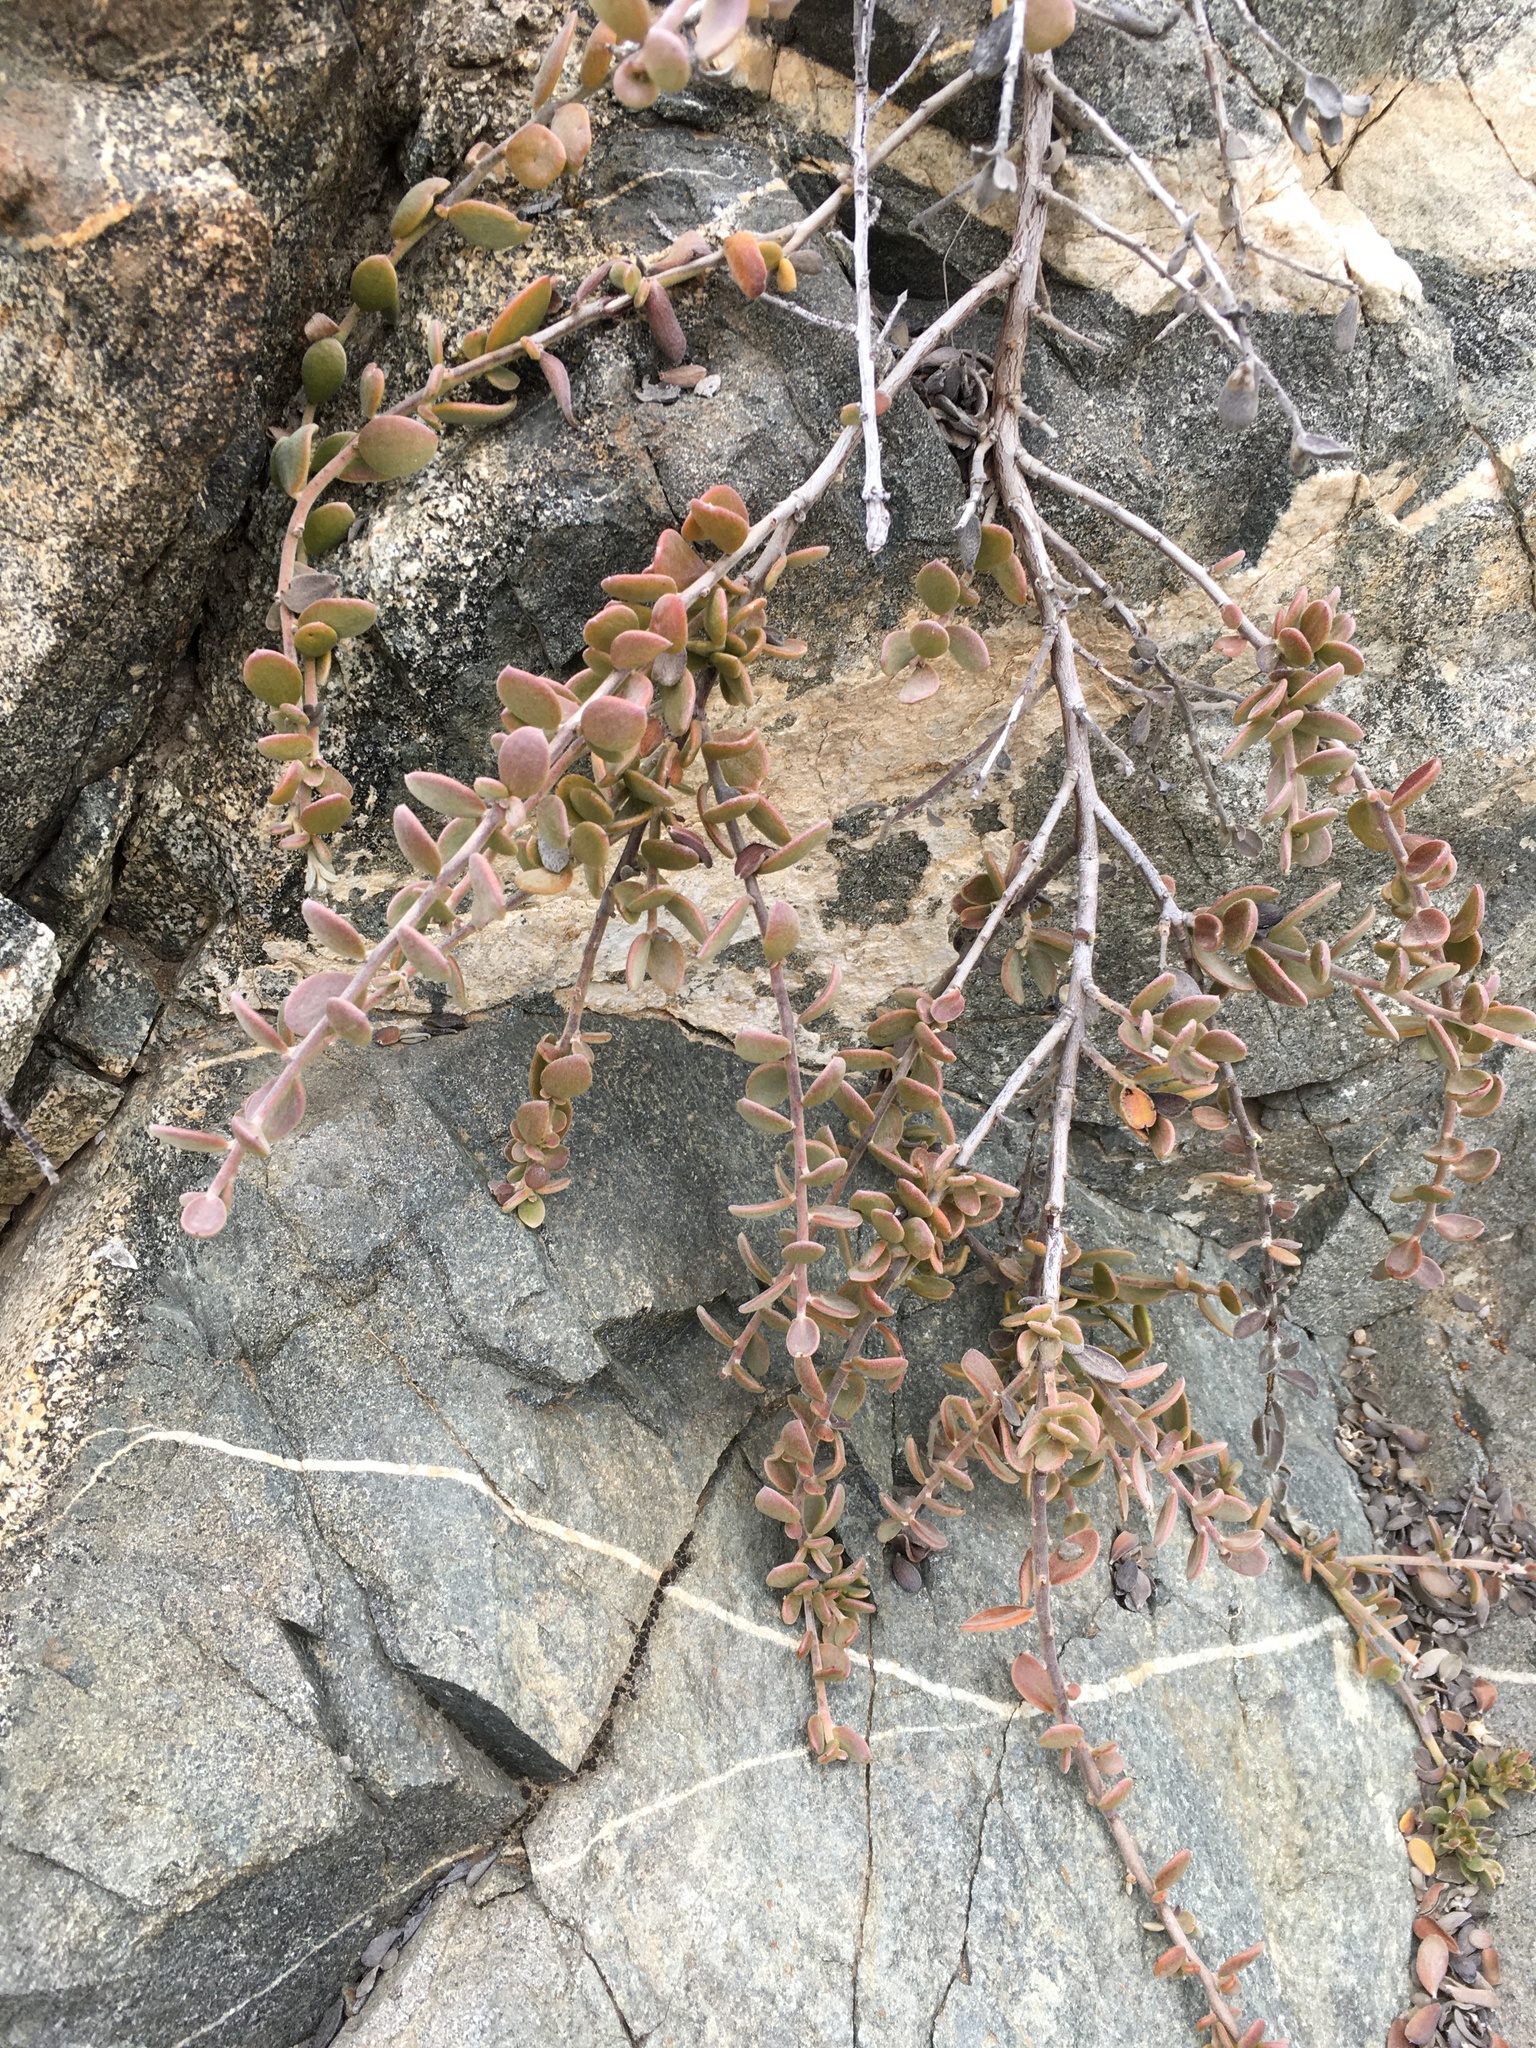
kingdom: Plantae
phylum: Tracheophyta
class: Magnoliopsida
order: Zygophyllales
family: Krameriaceae
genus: Krameria
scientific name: Krameria cistoidea
